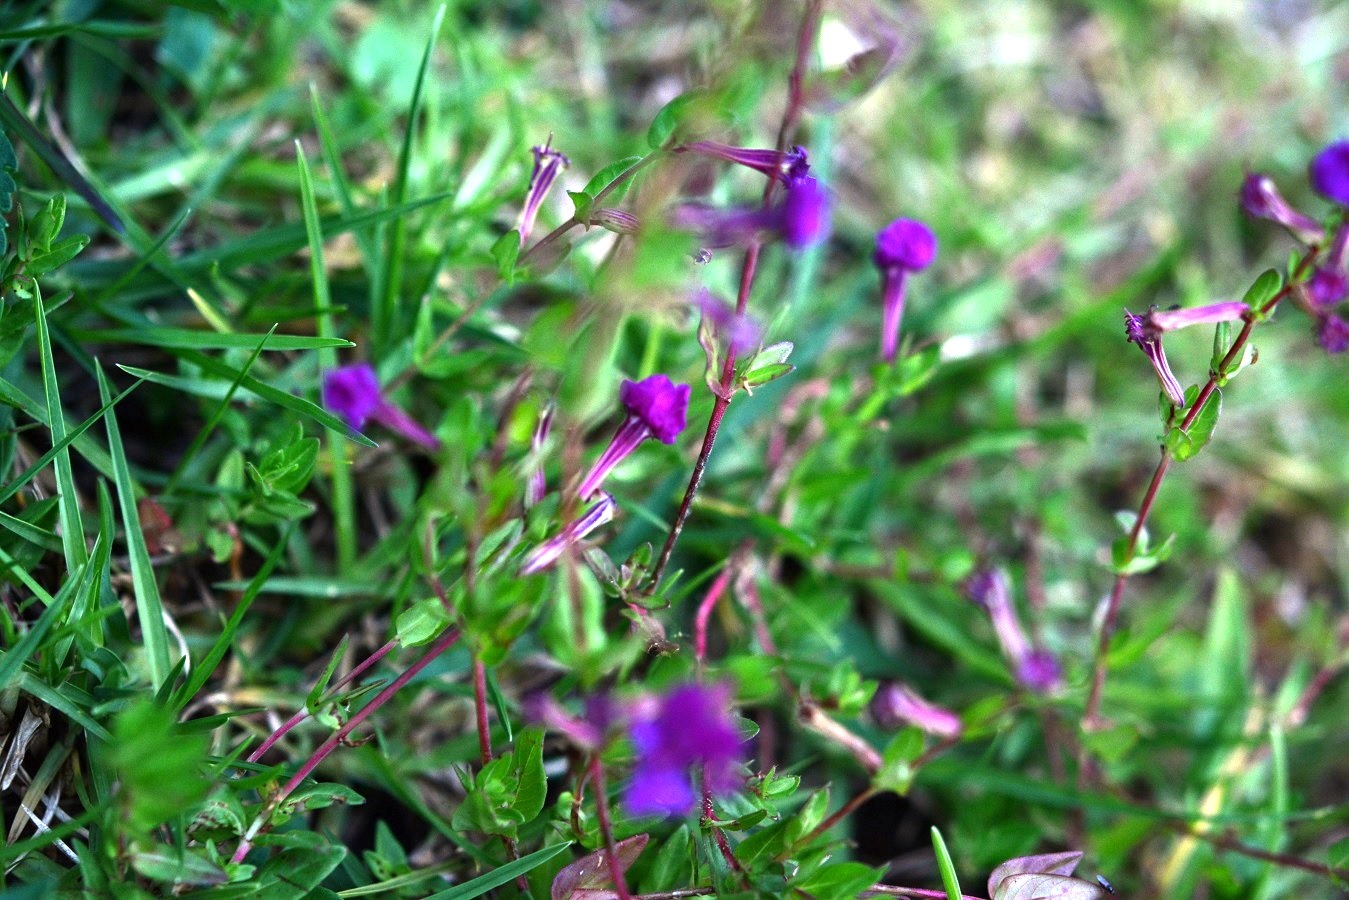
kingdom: Plantae
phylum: Tracheophyta
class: Magnoliopsida
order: Myrtales
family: Lythraceae
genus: Cuphea
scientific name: Cuphea aequipetala
